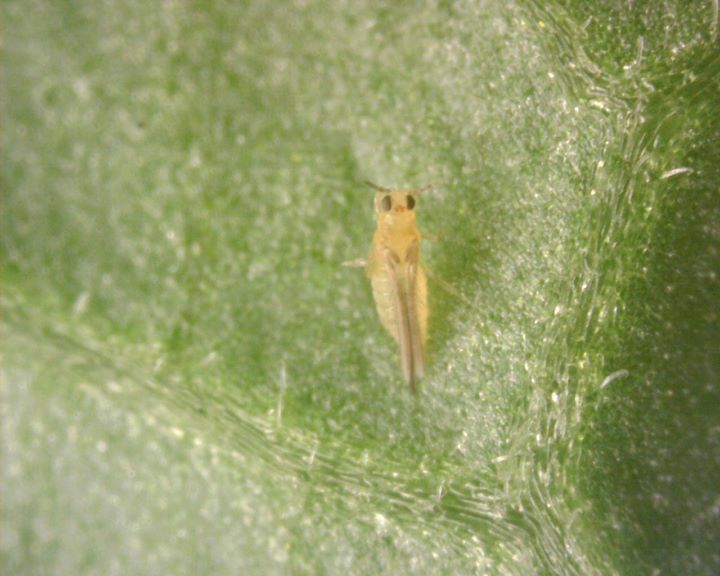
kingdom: Animalia
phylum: Arthropoda
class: Insecta
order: Thysanoptera
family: Thripidae
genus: Scirtothrips
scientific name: Scirtothrips dorsalis
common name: Thrips
